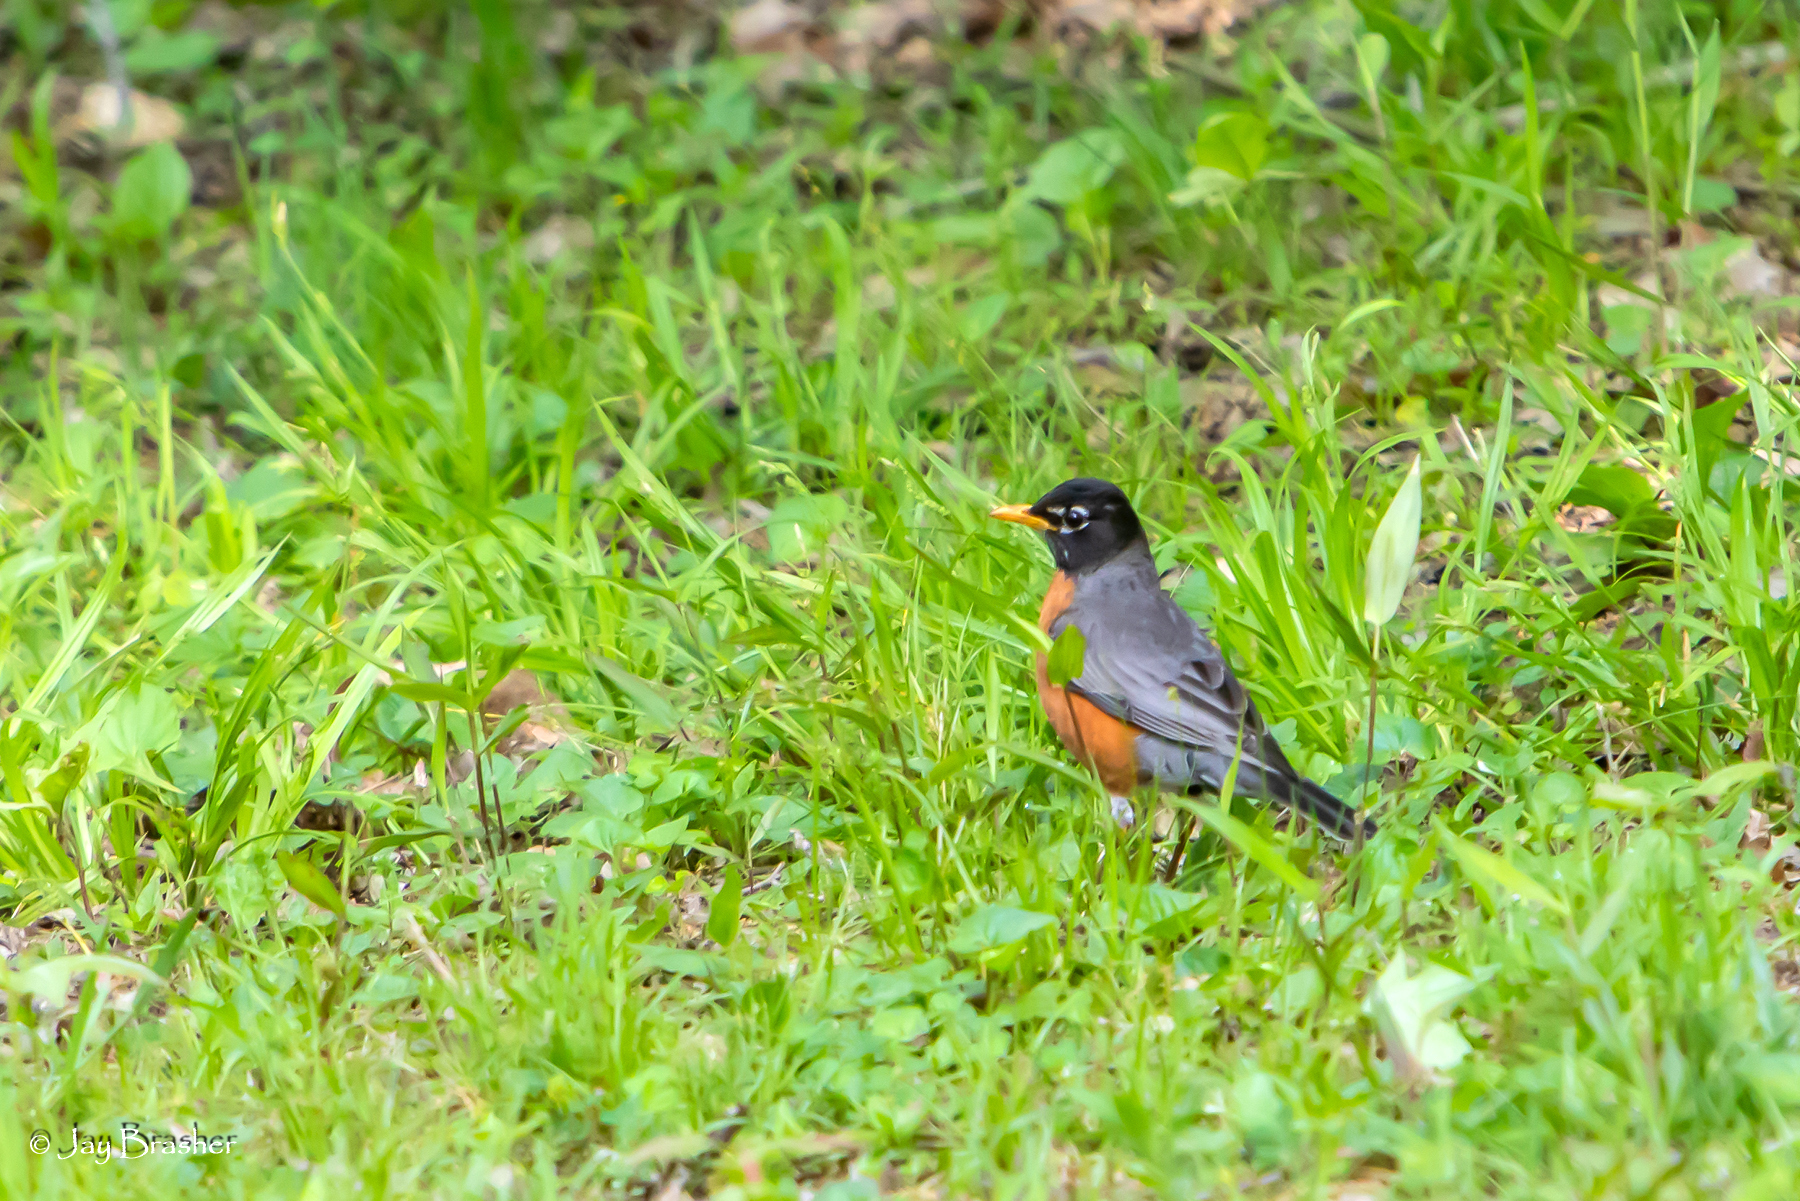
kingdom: Animalia
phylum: Chordata
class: Aves
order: Passeriformes
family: Turdidae
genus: Turdus
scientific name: Turdus migratorius
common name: American robin
